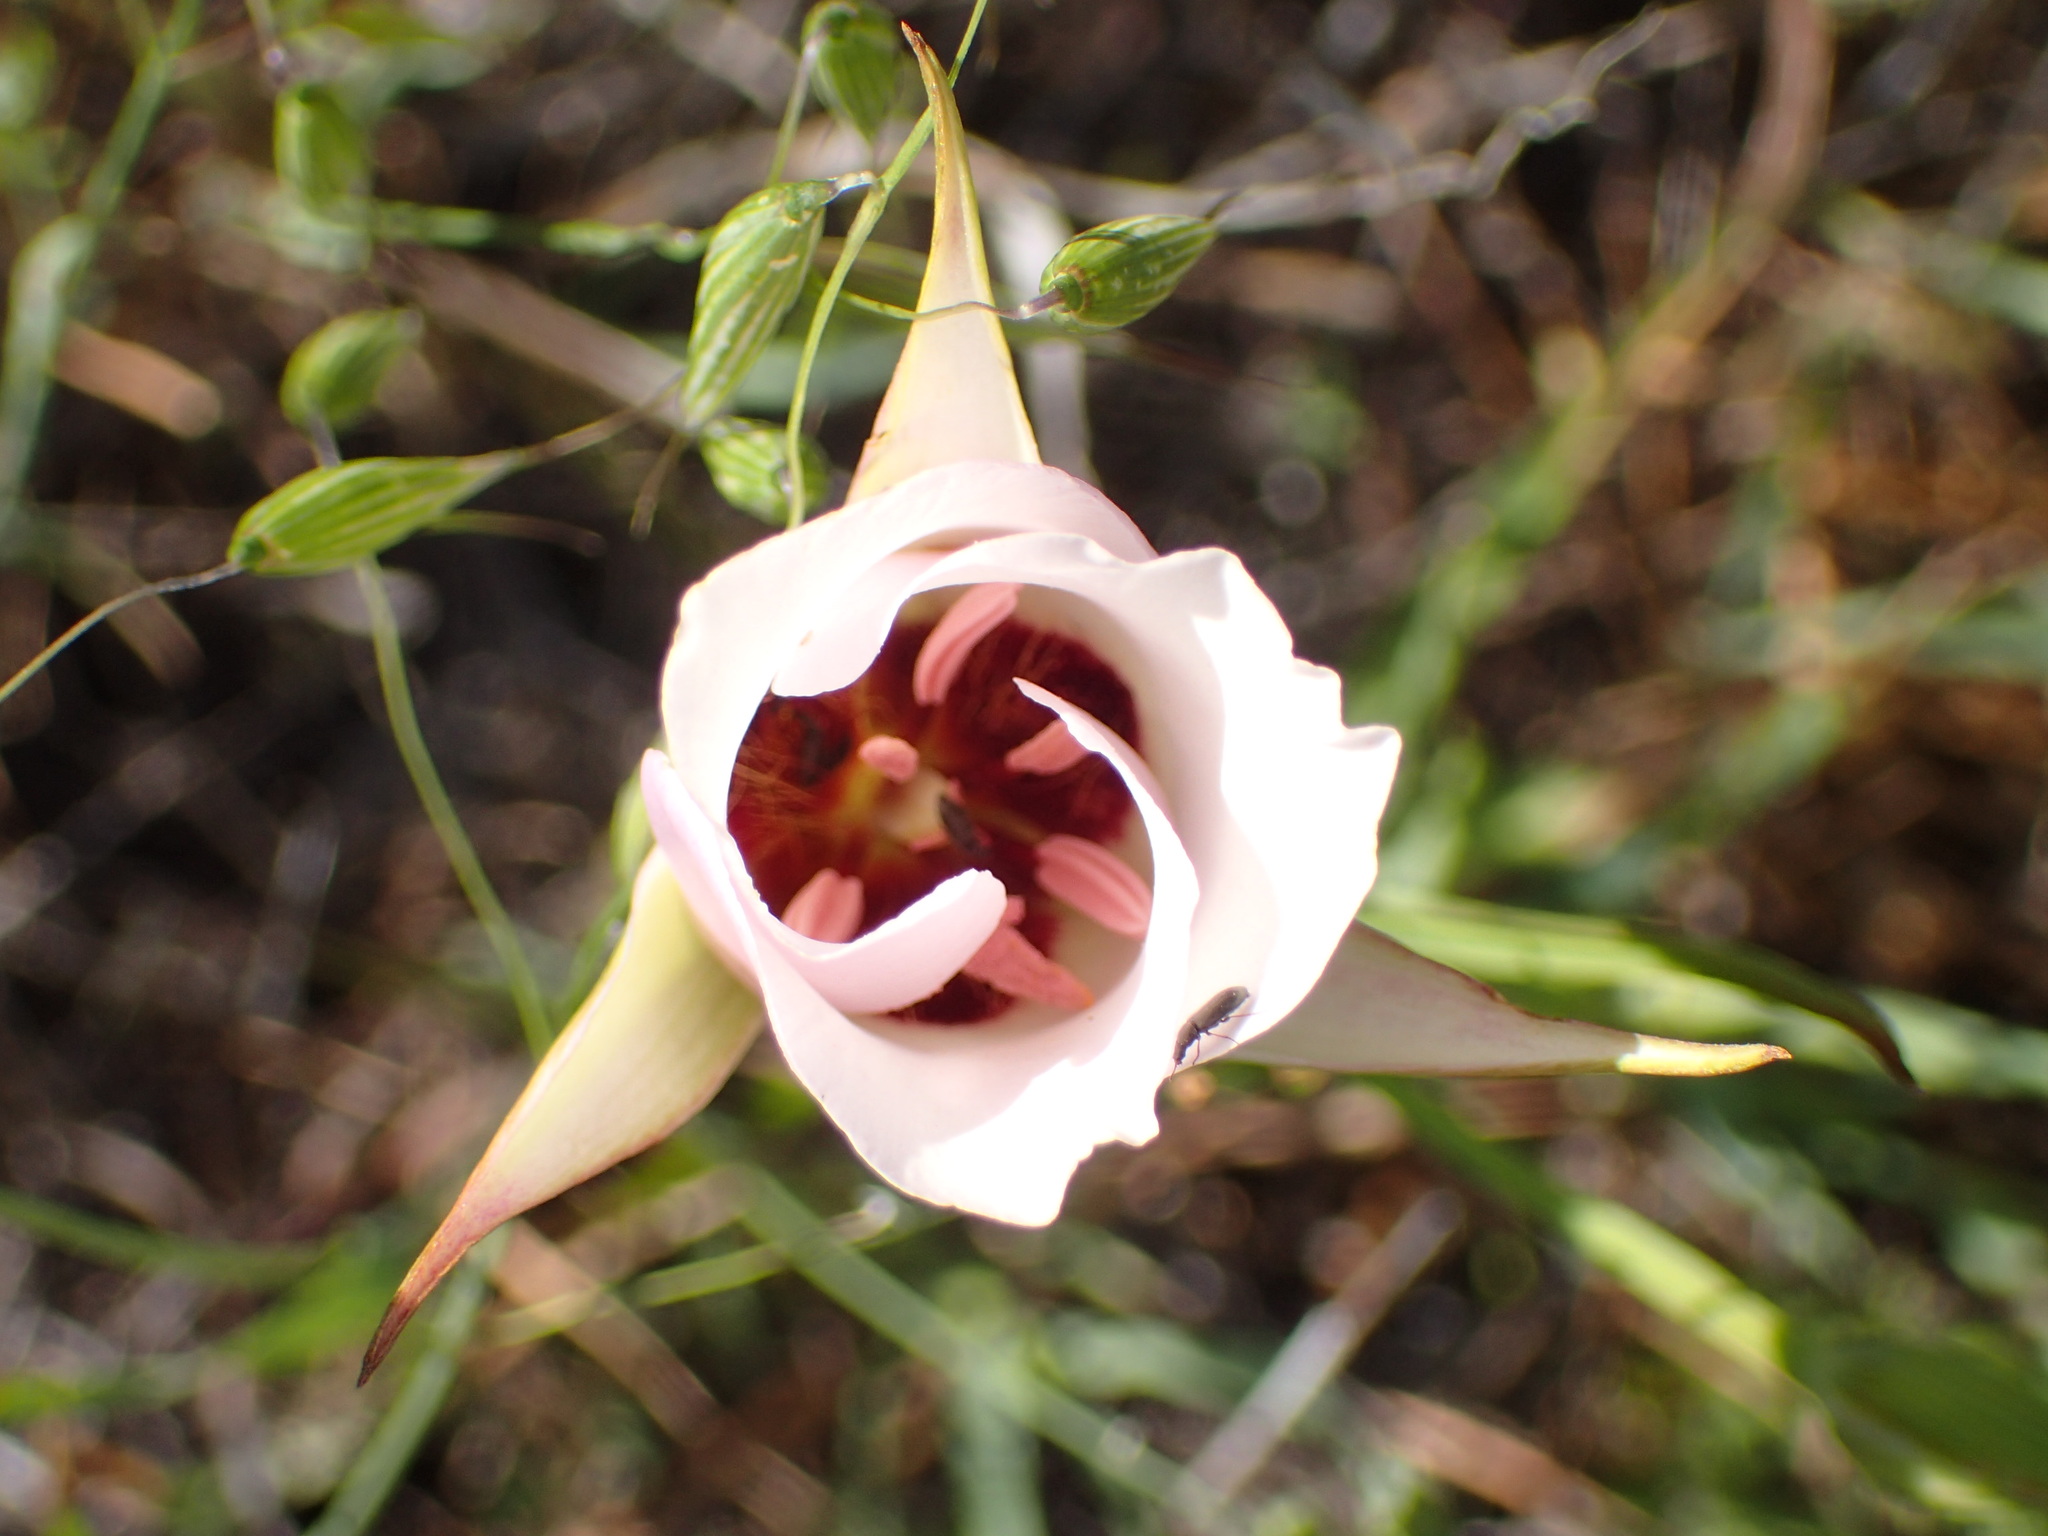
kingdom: Plantae
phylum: Tracheophyta
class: Liliopsida
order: Liliales
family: Liliaceae
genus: Calochortus
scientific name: Calochortus catalinae
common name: Catalina mariposa-lily
